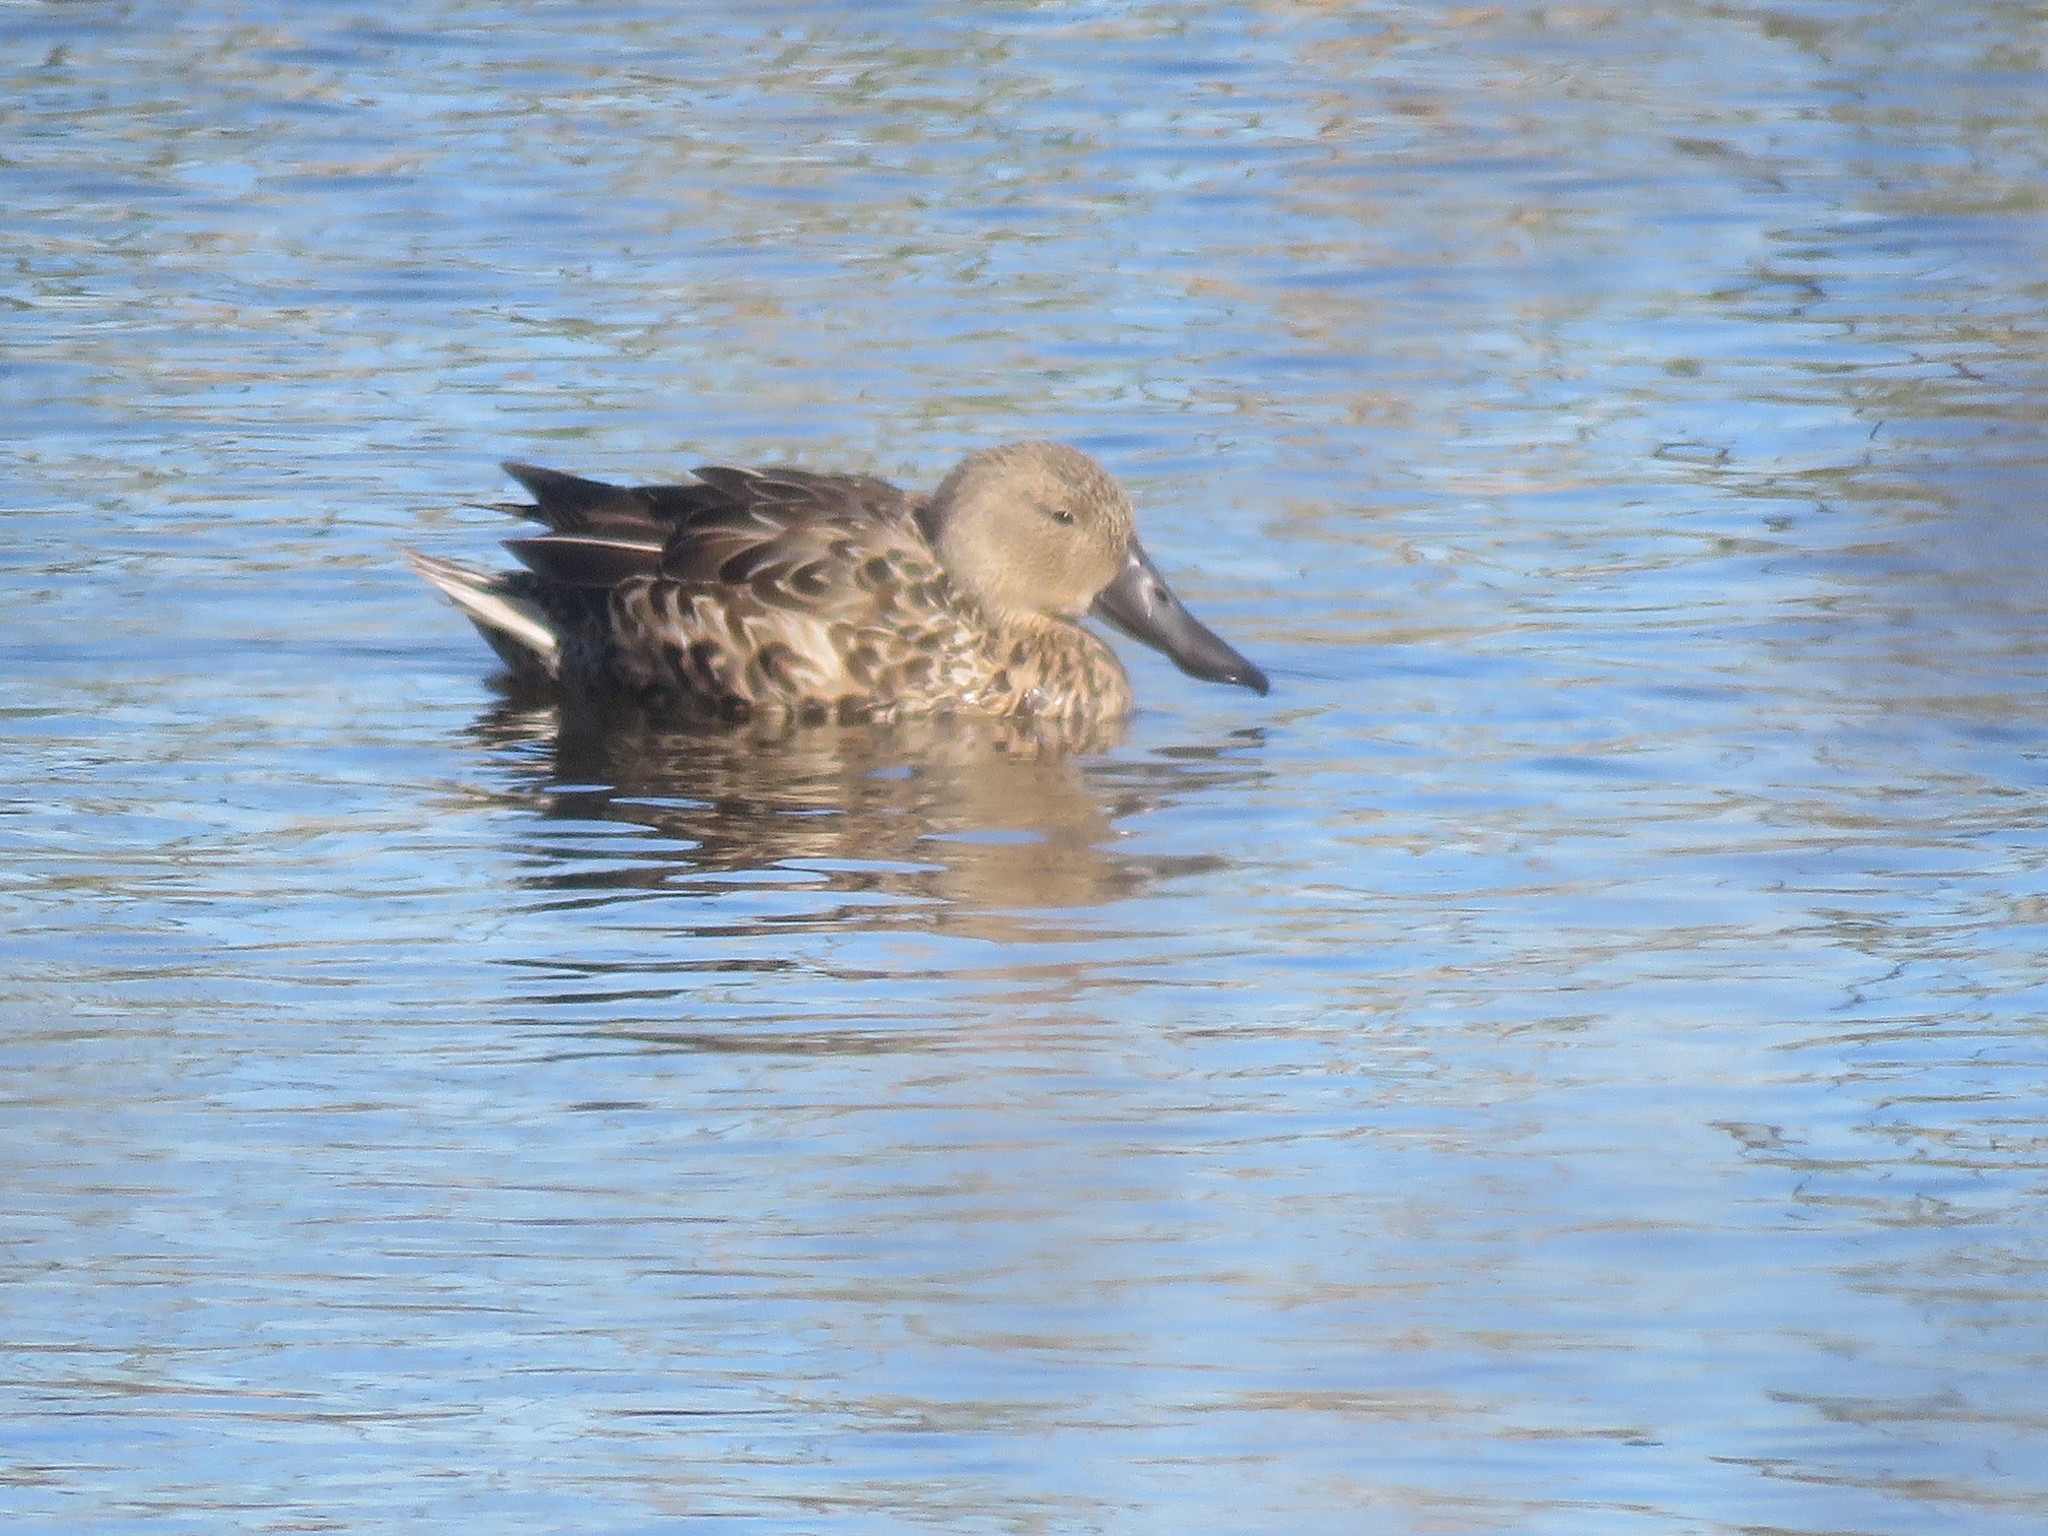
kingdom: Animalia
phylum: Chordata
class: Aves
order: Anseriformes
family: Anatidae
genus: Spatula
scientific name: Spatula platalea
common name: Red shoveler
